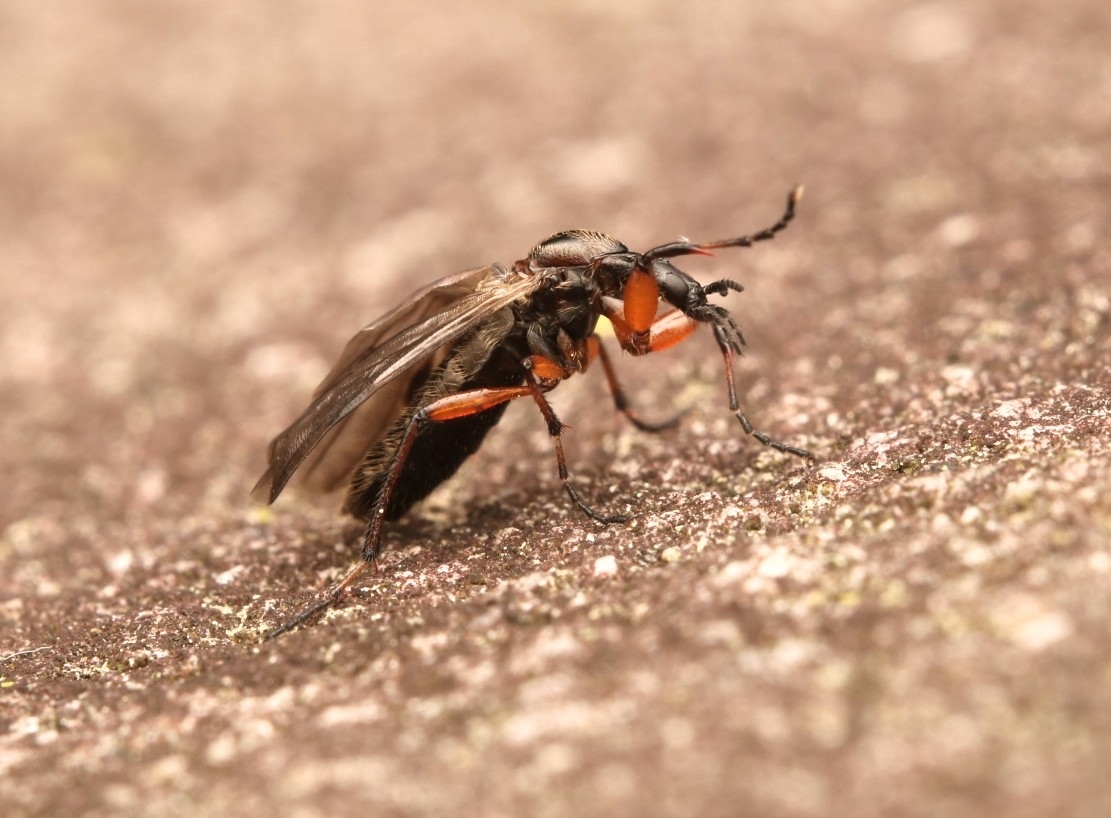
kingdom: Animalia
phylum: Arthropoda
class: Insecta
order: Diptera
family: Bibionidae
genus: Bibio
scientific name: Bibio articulatus
